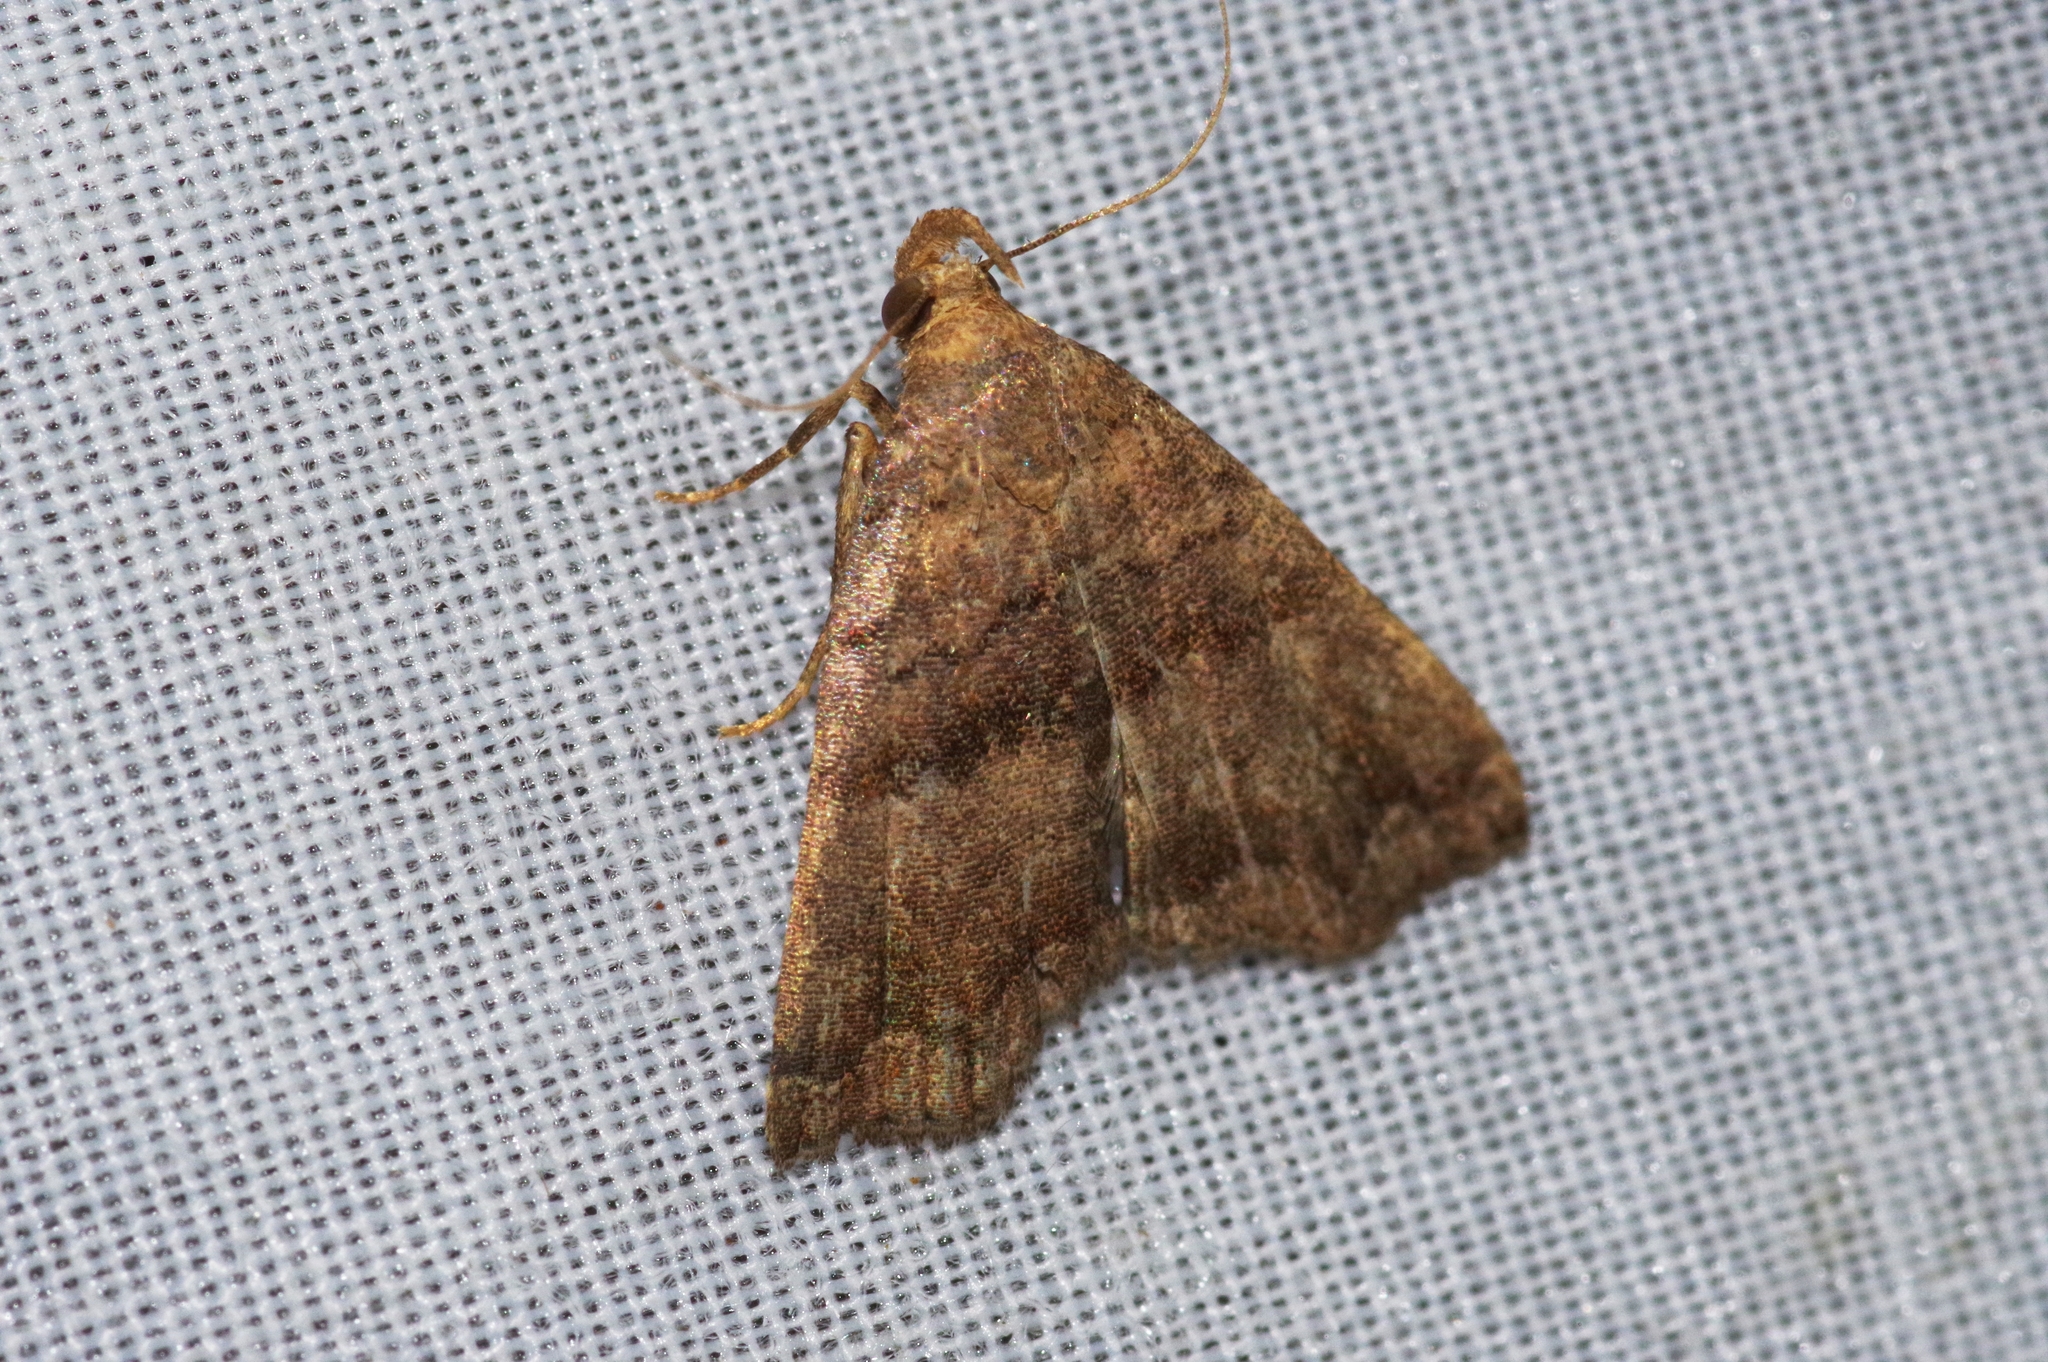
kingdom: Animalia
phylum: Arthropoda
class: Insecta
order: Lepidoptera
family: Erebidae
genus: Polypogon
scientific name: Polypogon Hipoepa fractalis
